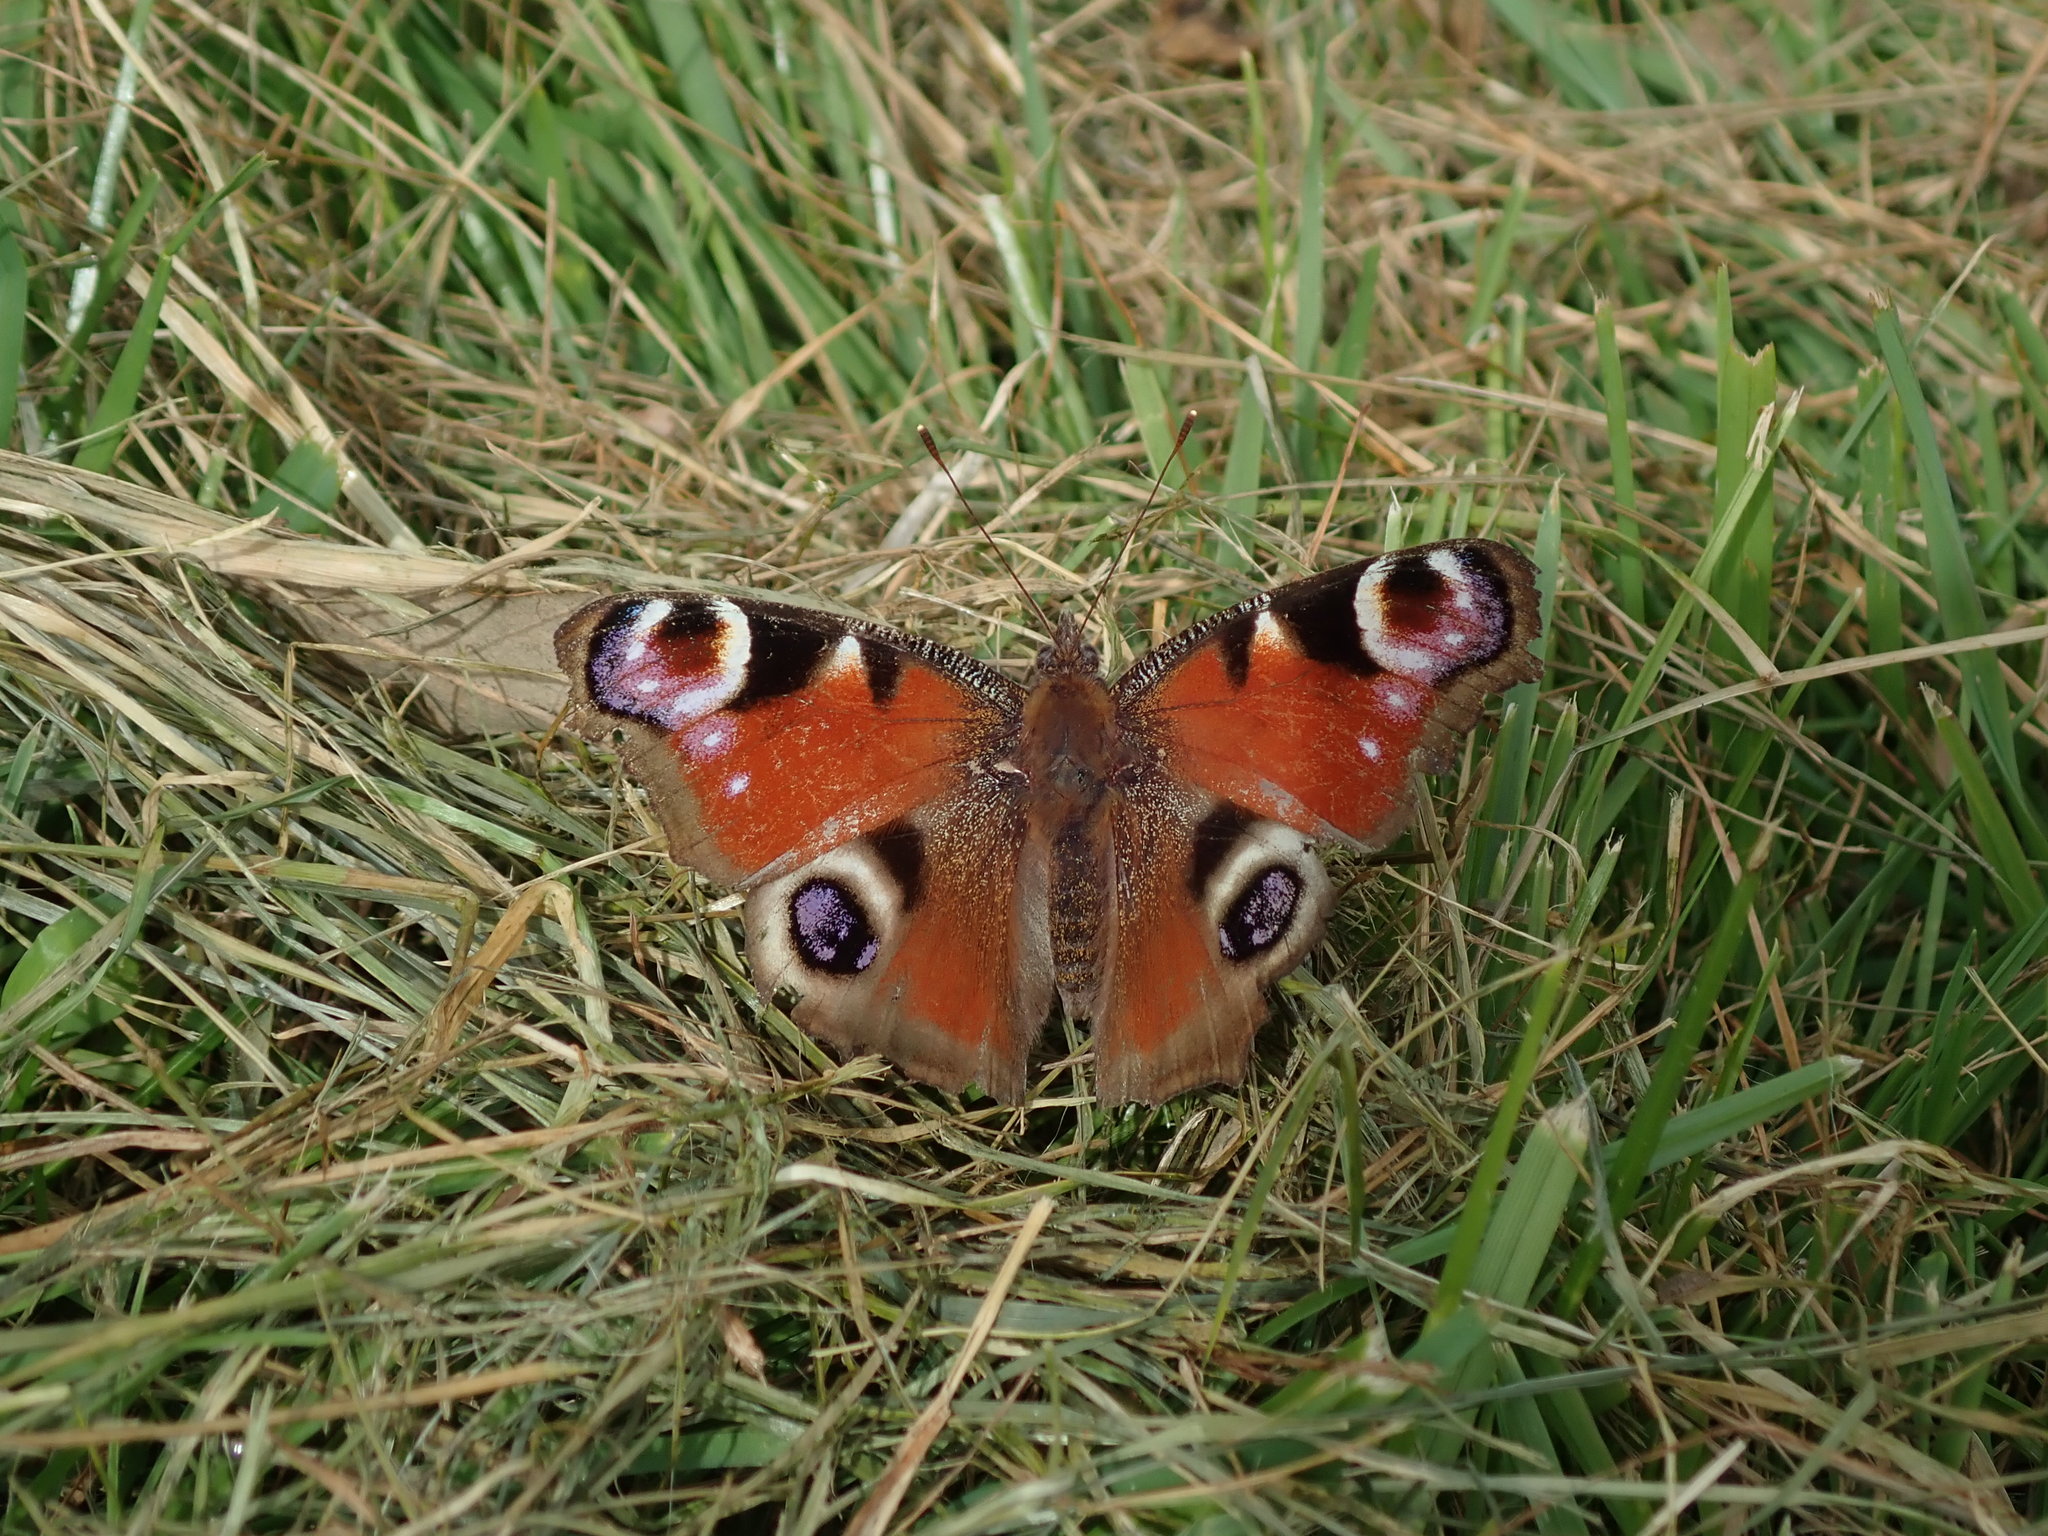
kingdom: Animalia
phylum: Arthropoda
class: Insecta
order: Lepidoptera
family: Nymphalidae
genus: Aglais
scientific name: Aglais io
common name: Peacock
